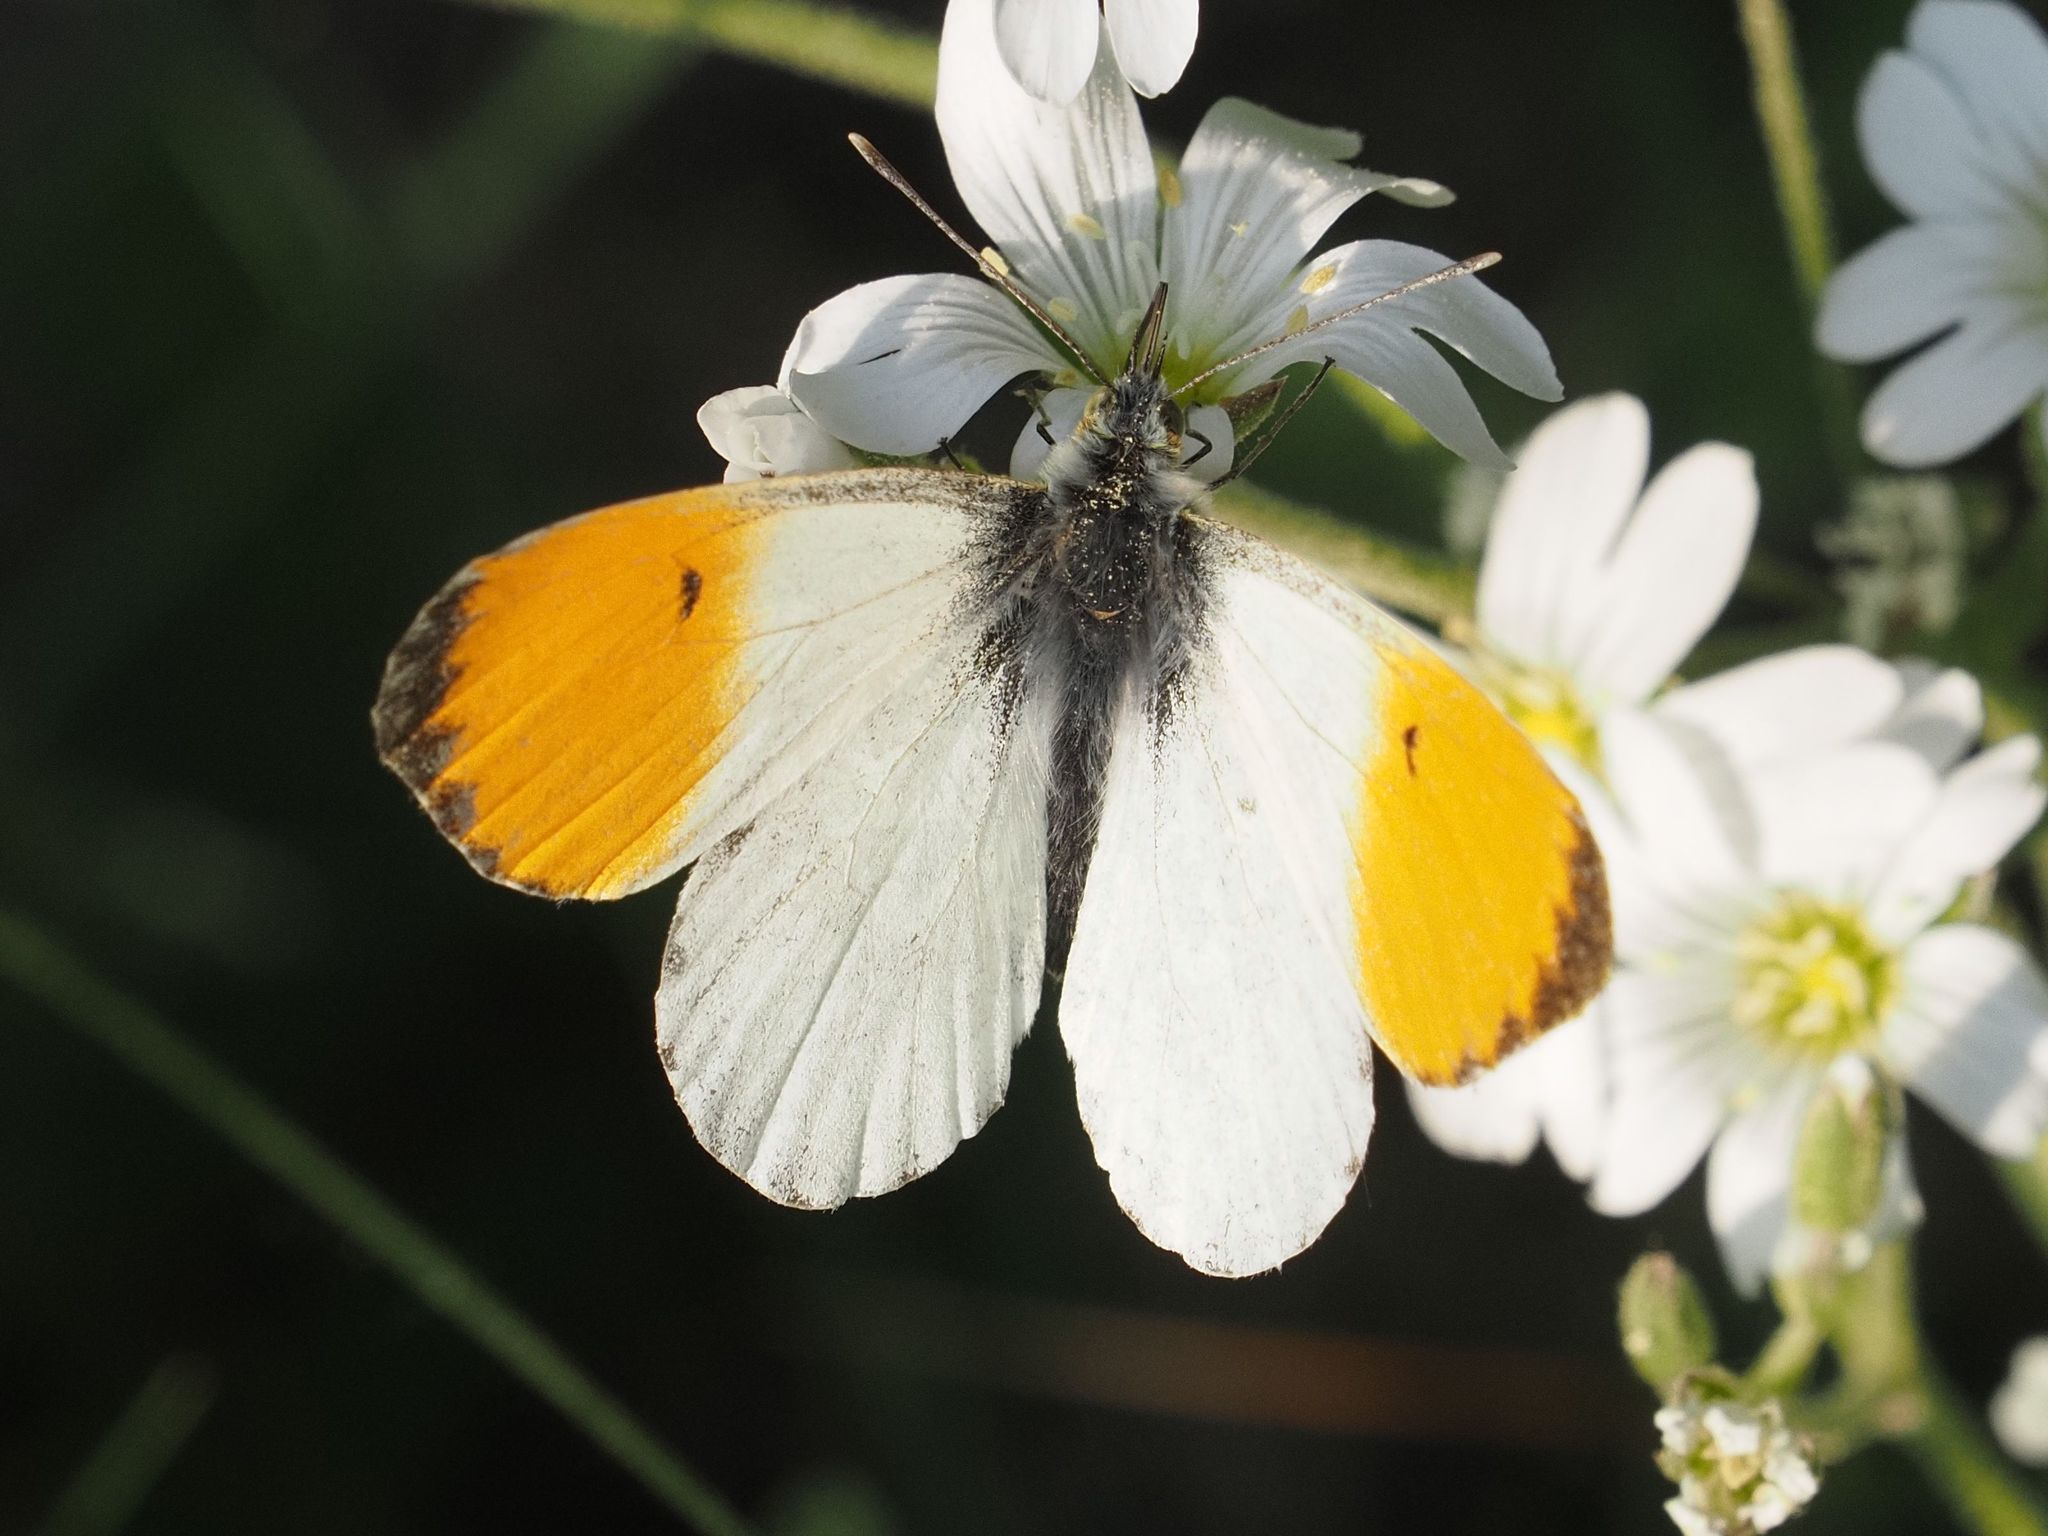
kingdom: Animalia
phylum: Arthropoda
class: Insecta
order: Lepidoptera
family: Pieridae
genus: Anthocharis
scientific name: Anthocharis cardamines
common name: Orange-tip
